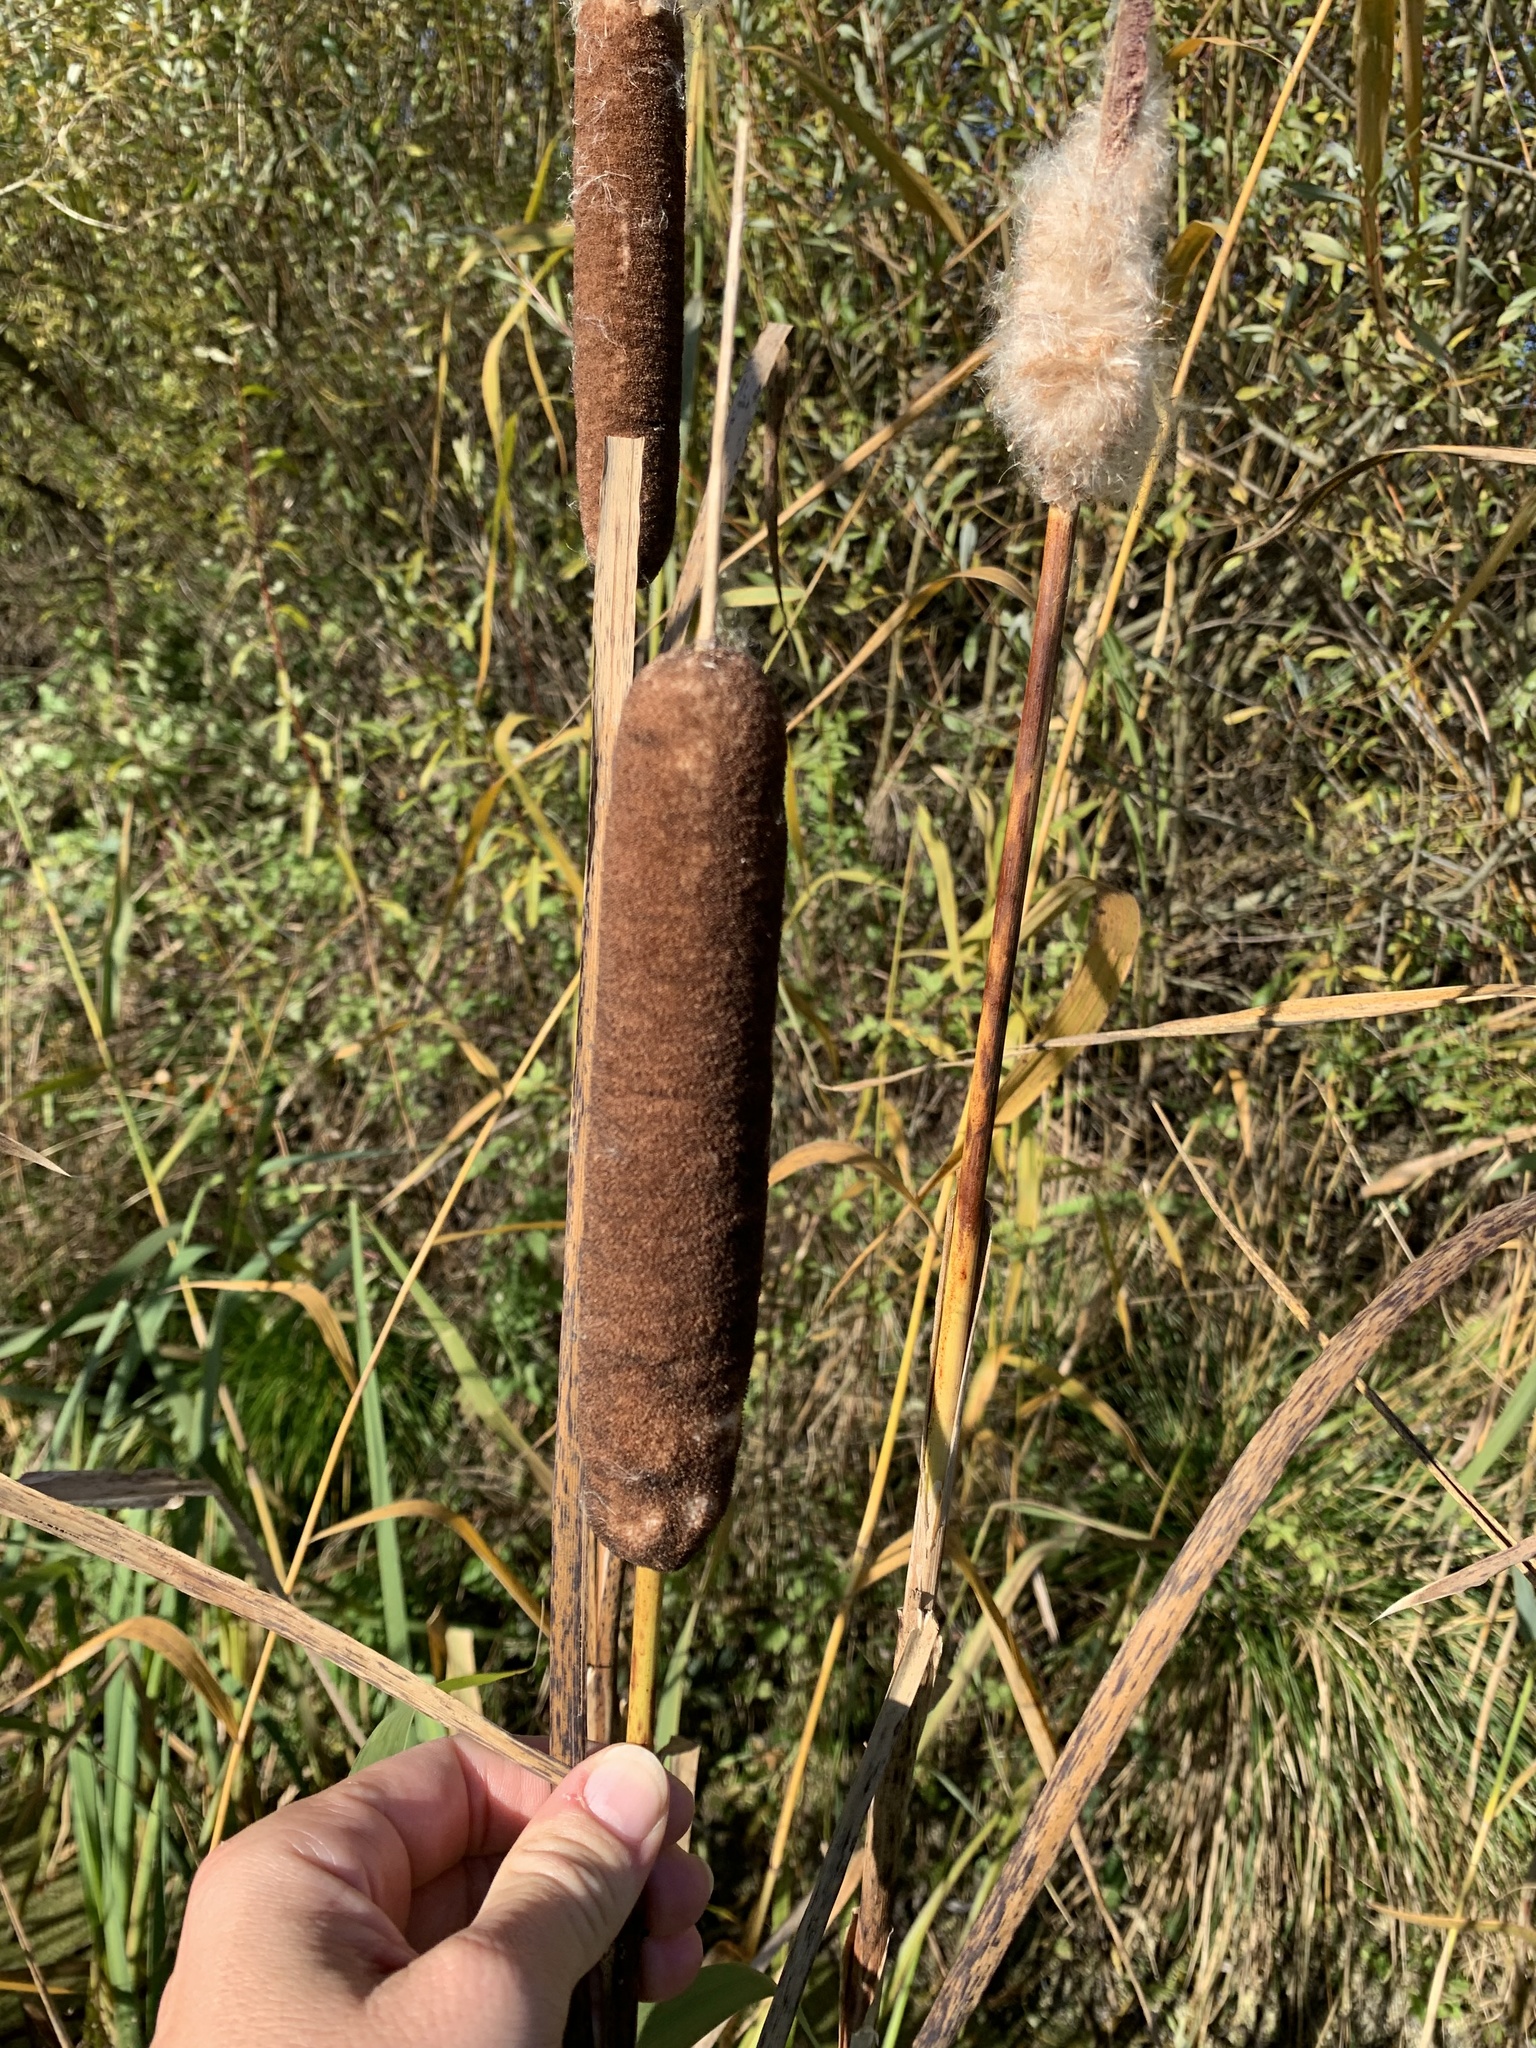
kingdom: Plantae
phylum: Tracheophyta
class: Liliopsida
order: Poales
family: Typhaceae
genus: Typha
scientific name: Typha latifolia
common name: Broadleaf cattail
